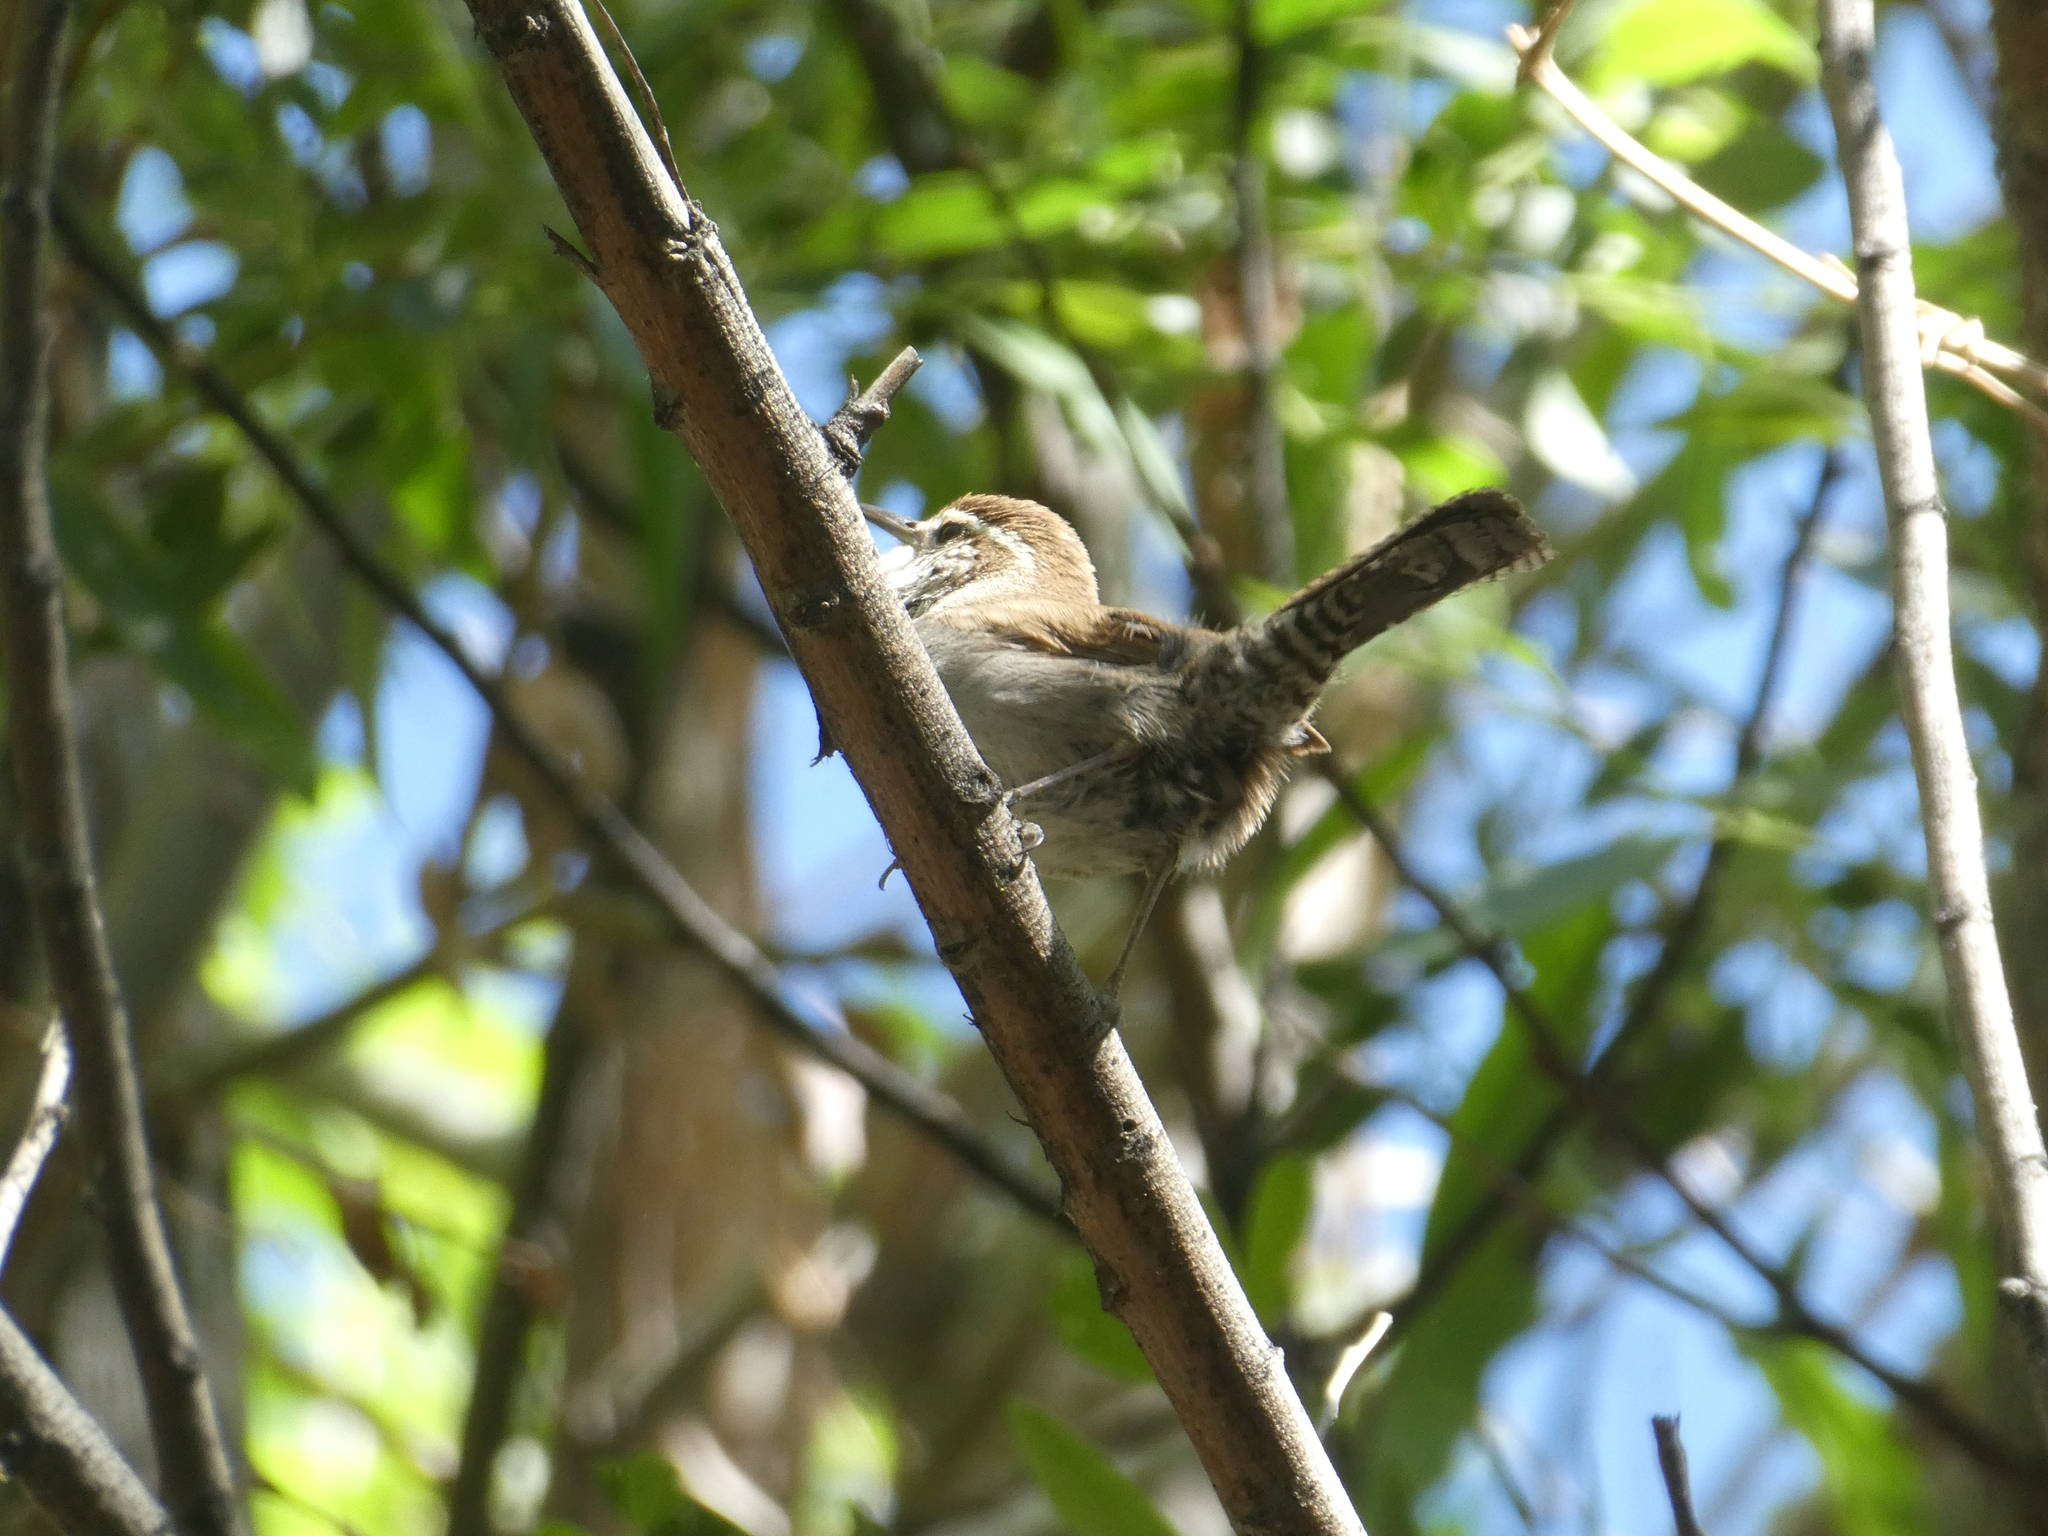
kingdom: Animalia
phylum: Chordata
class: Aves
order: Passeriformes
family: Troglodytidae
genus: Thryomanes
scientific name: Thryomanes bewickii
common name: Bewick's wren
